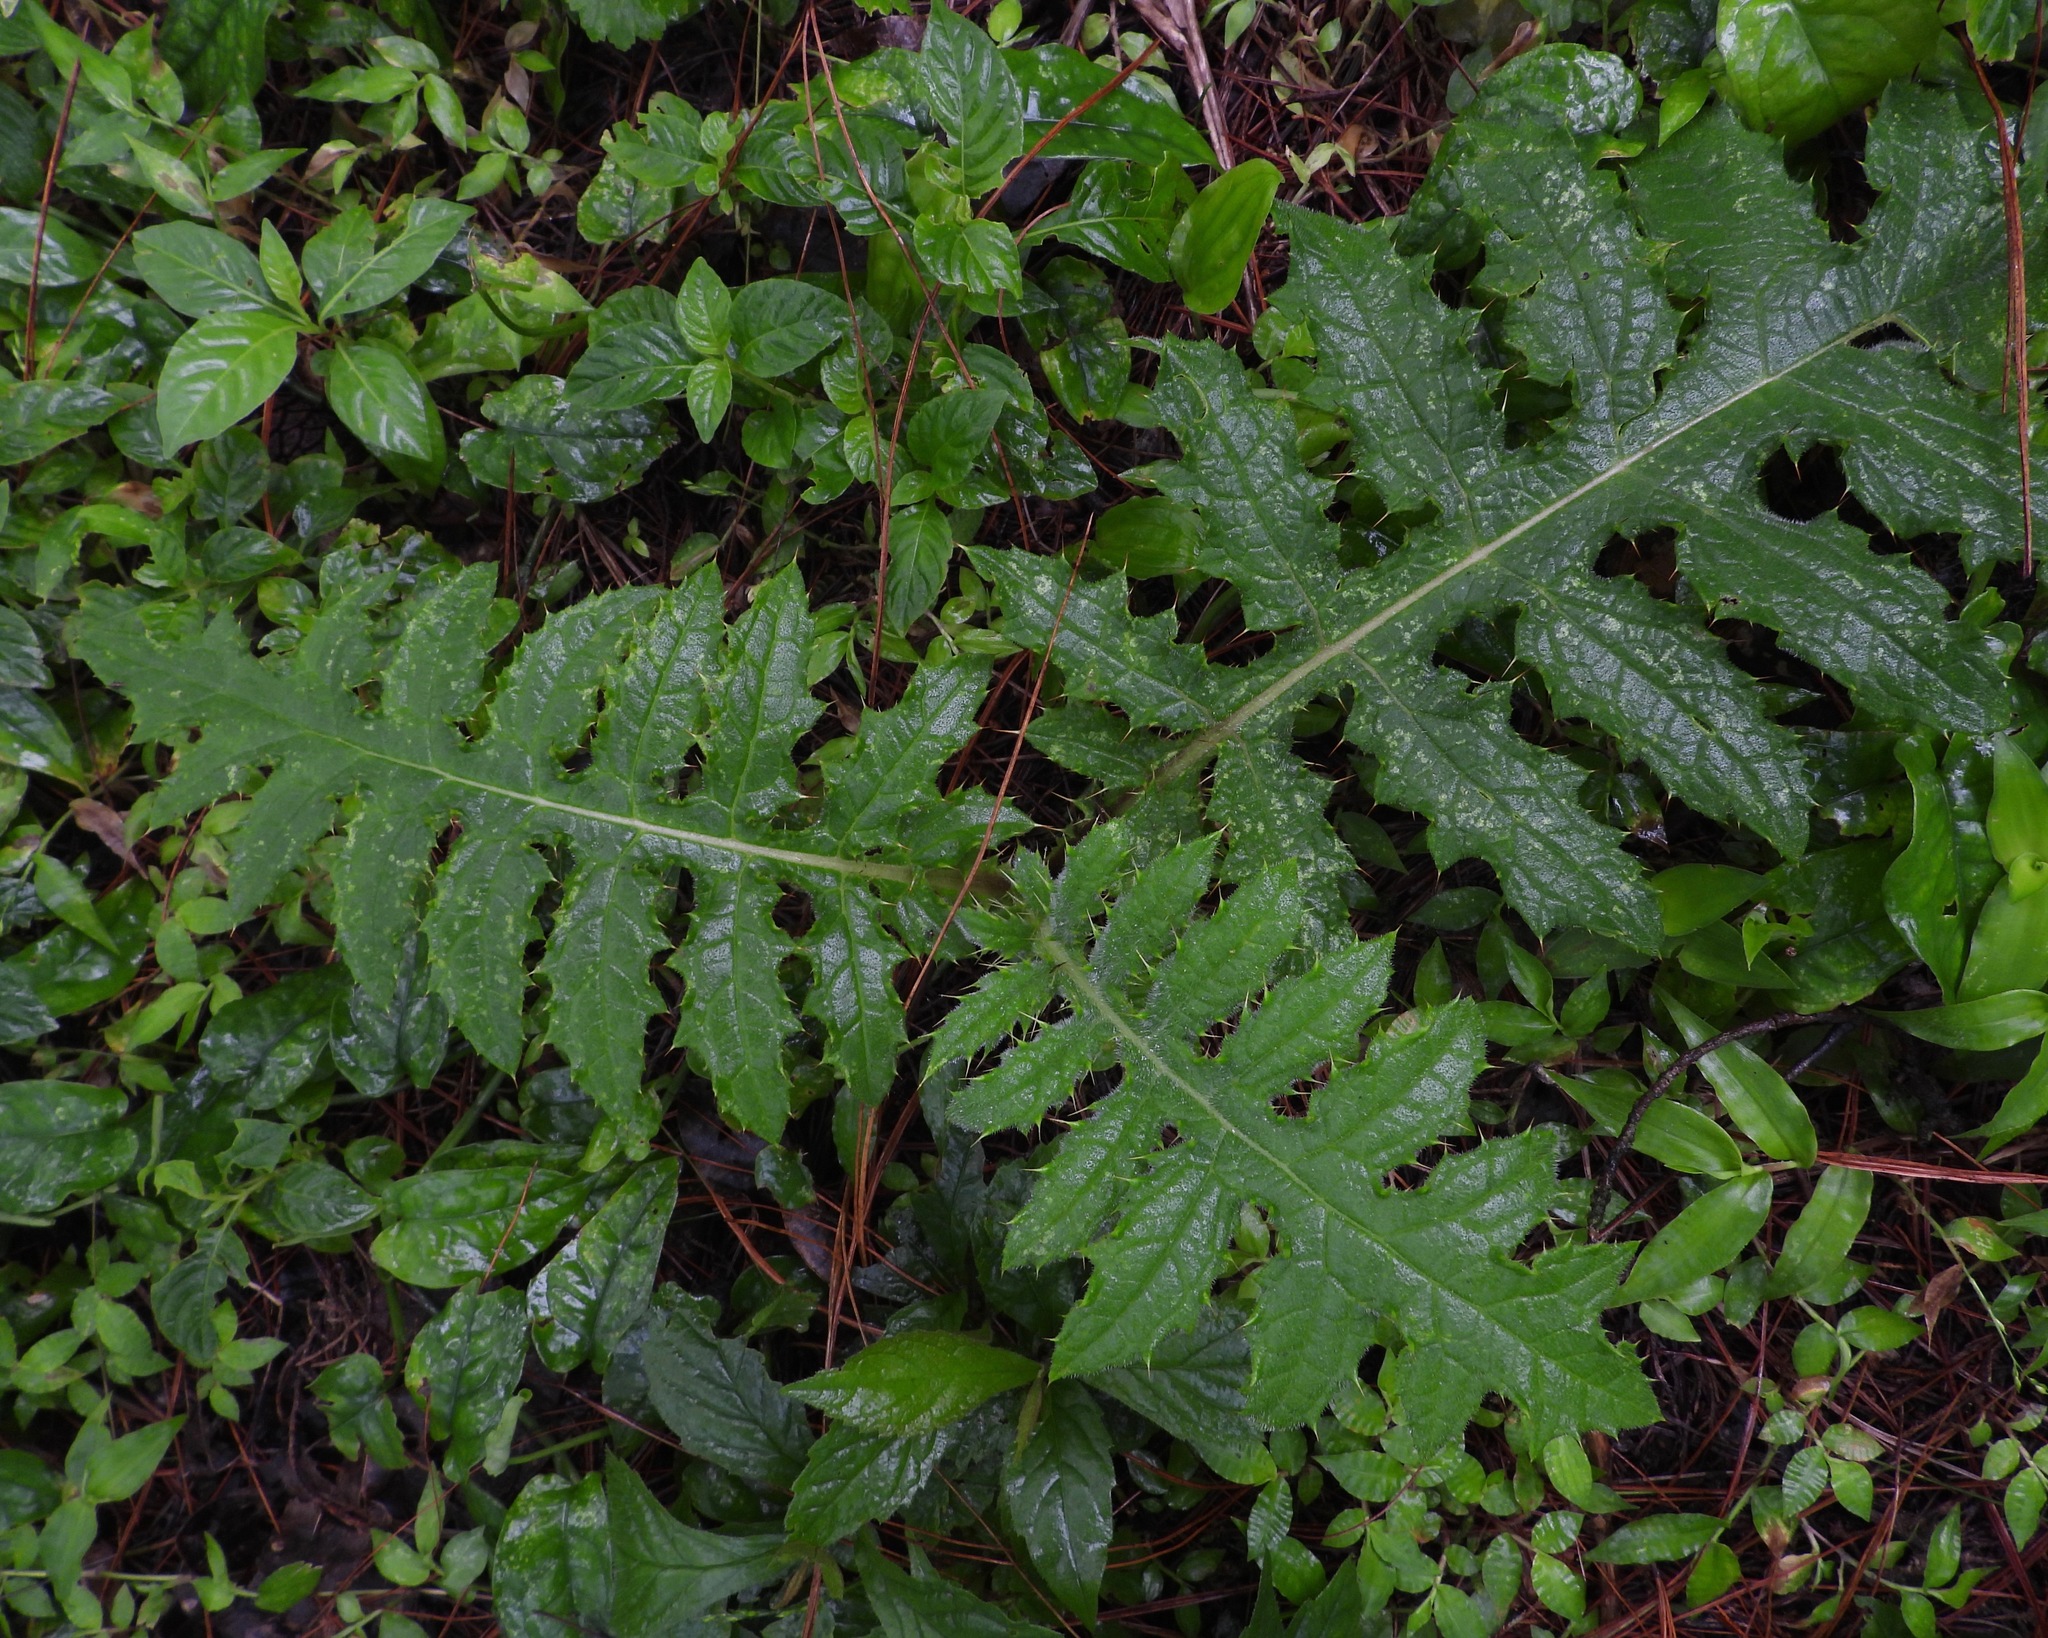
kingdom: Plantae
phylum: Tracheophyta
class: Magnoliopsida
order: Asterales
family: Asteraceae
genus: Cirsium
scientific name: Cirsium subcoriaceum
